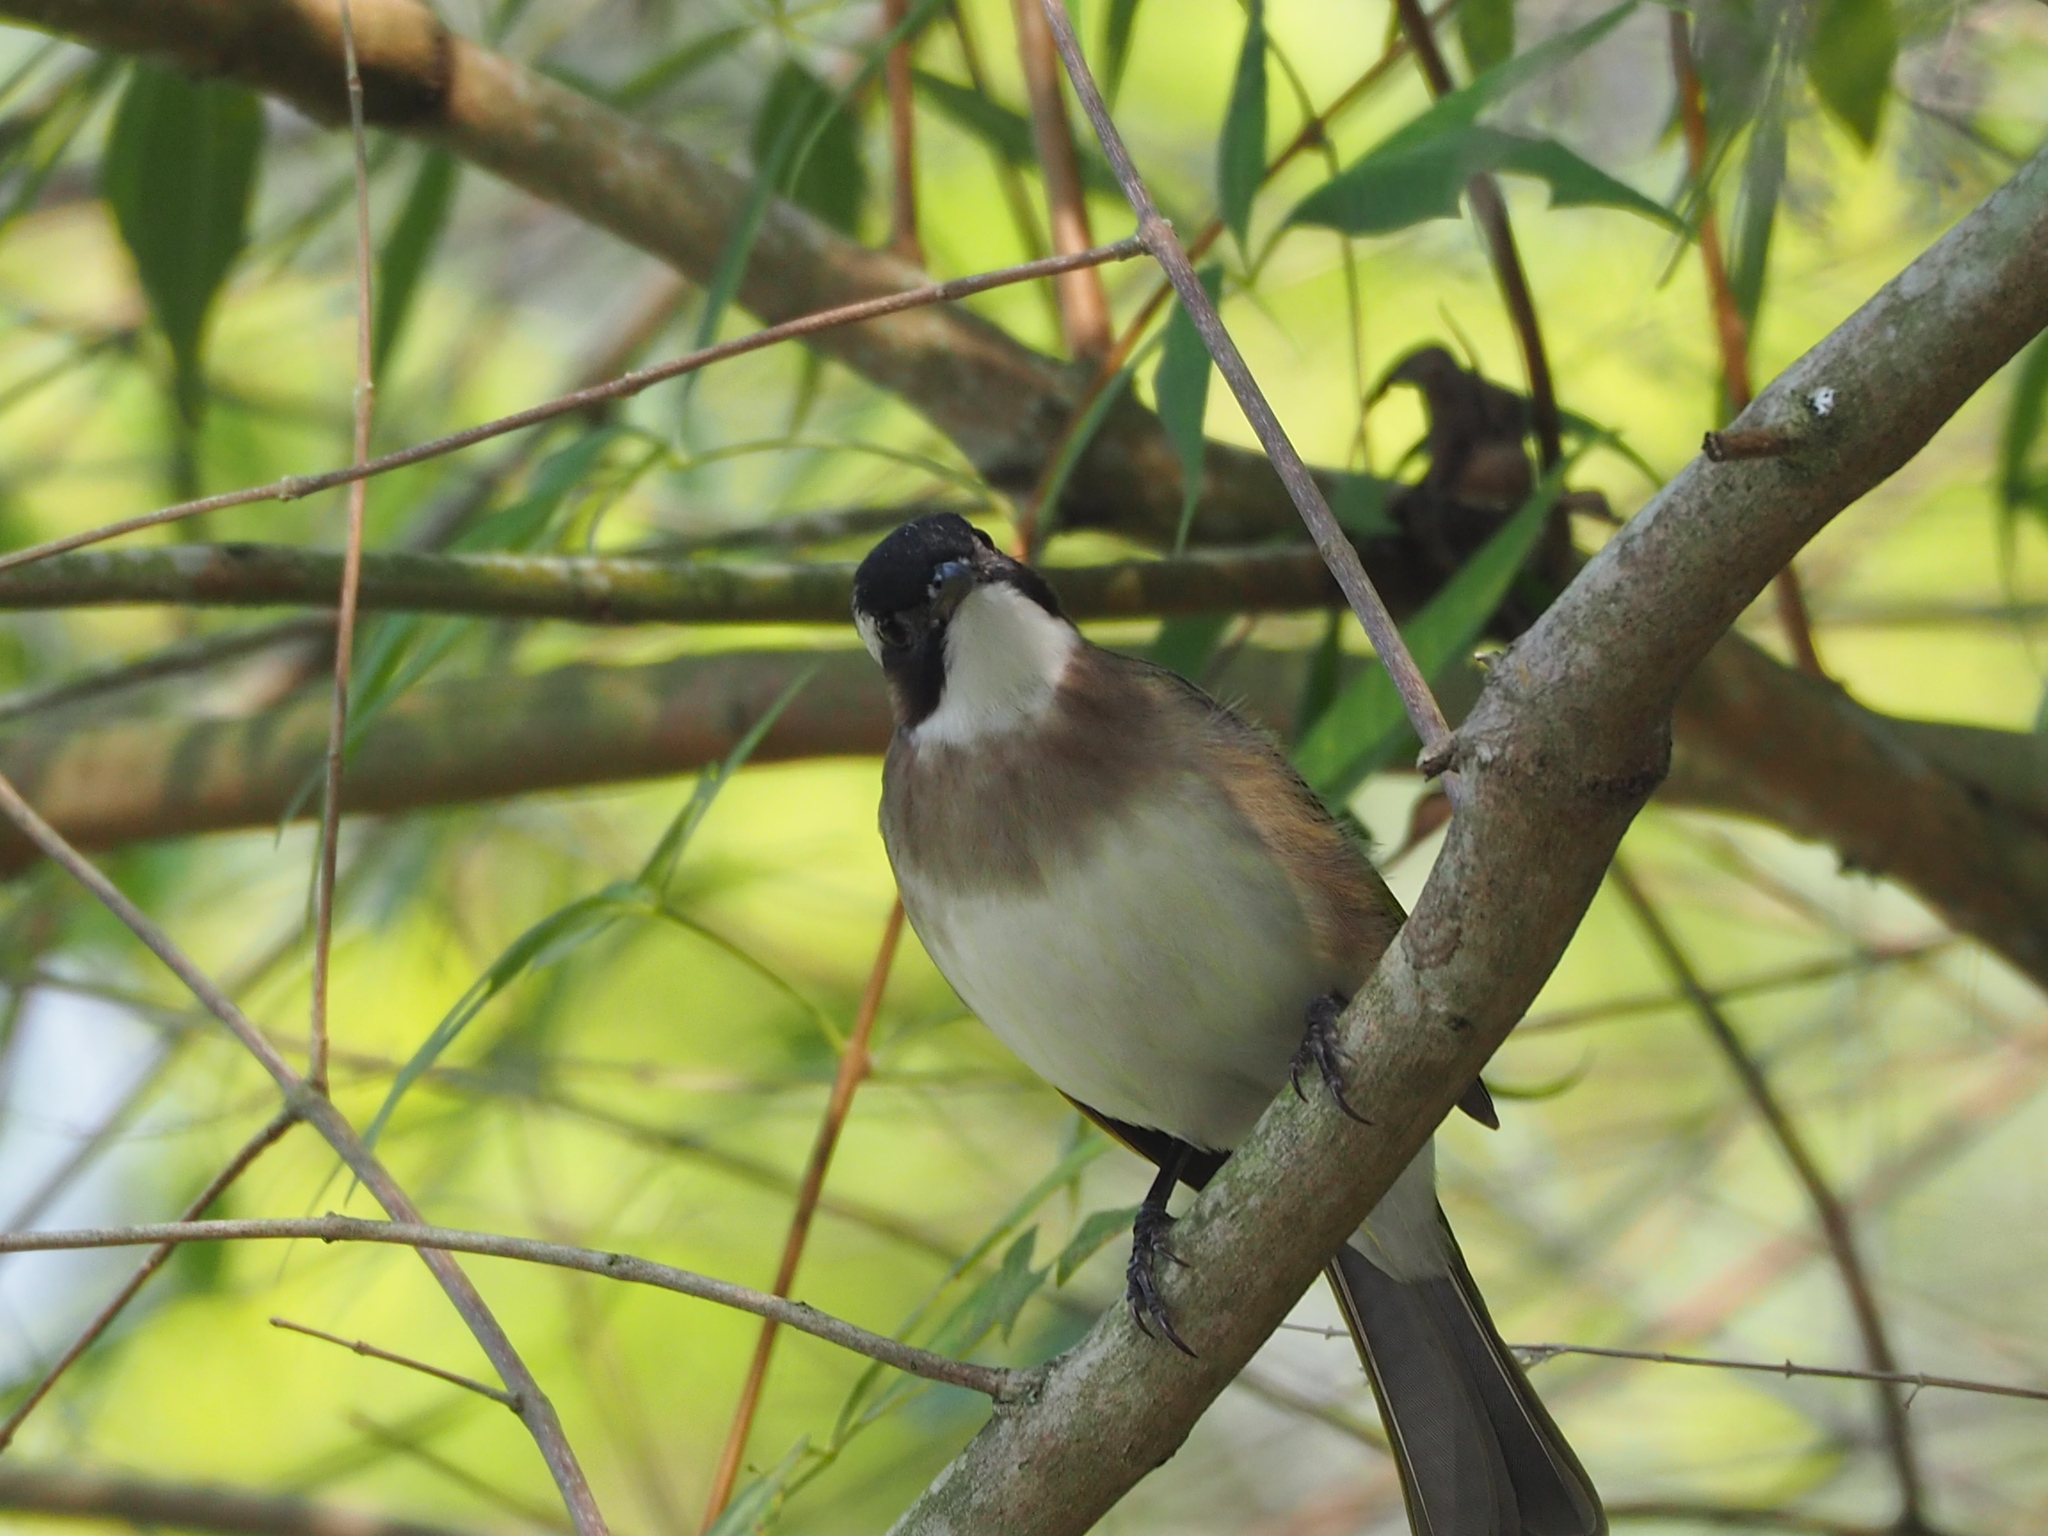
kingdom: Animalia
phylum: Chordata
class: Aves
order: Passeriformes
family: Pycnonotidae
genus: Pycnonotus
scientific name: Pycnonotus sinensis
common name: Light-vented bulbul
